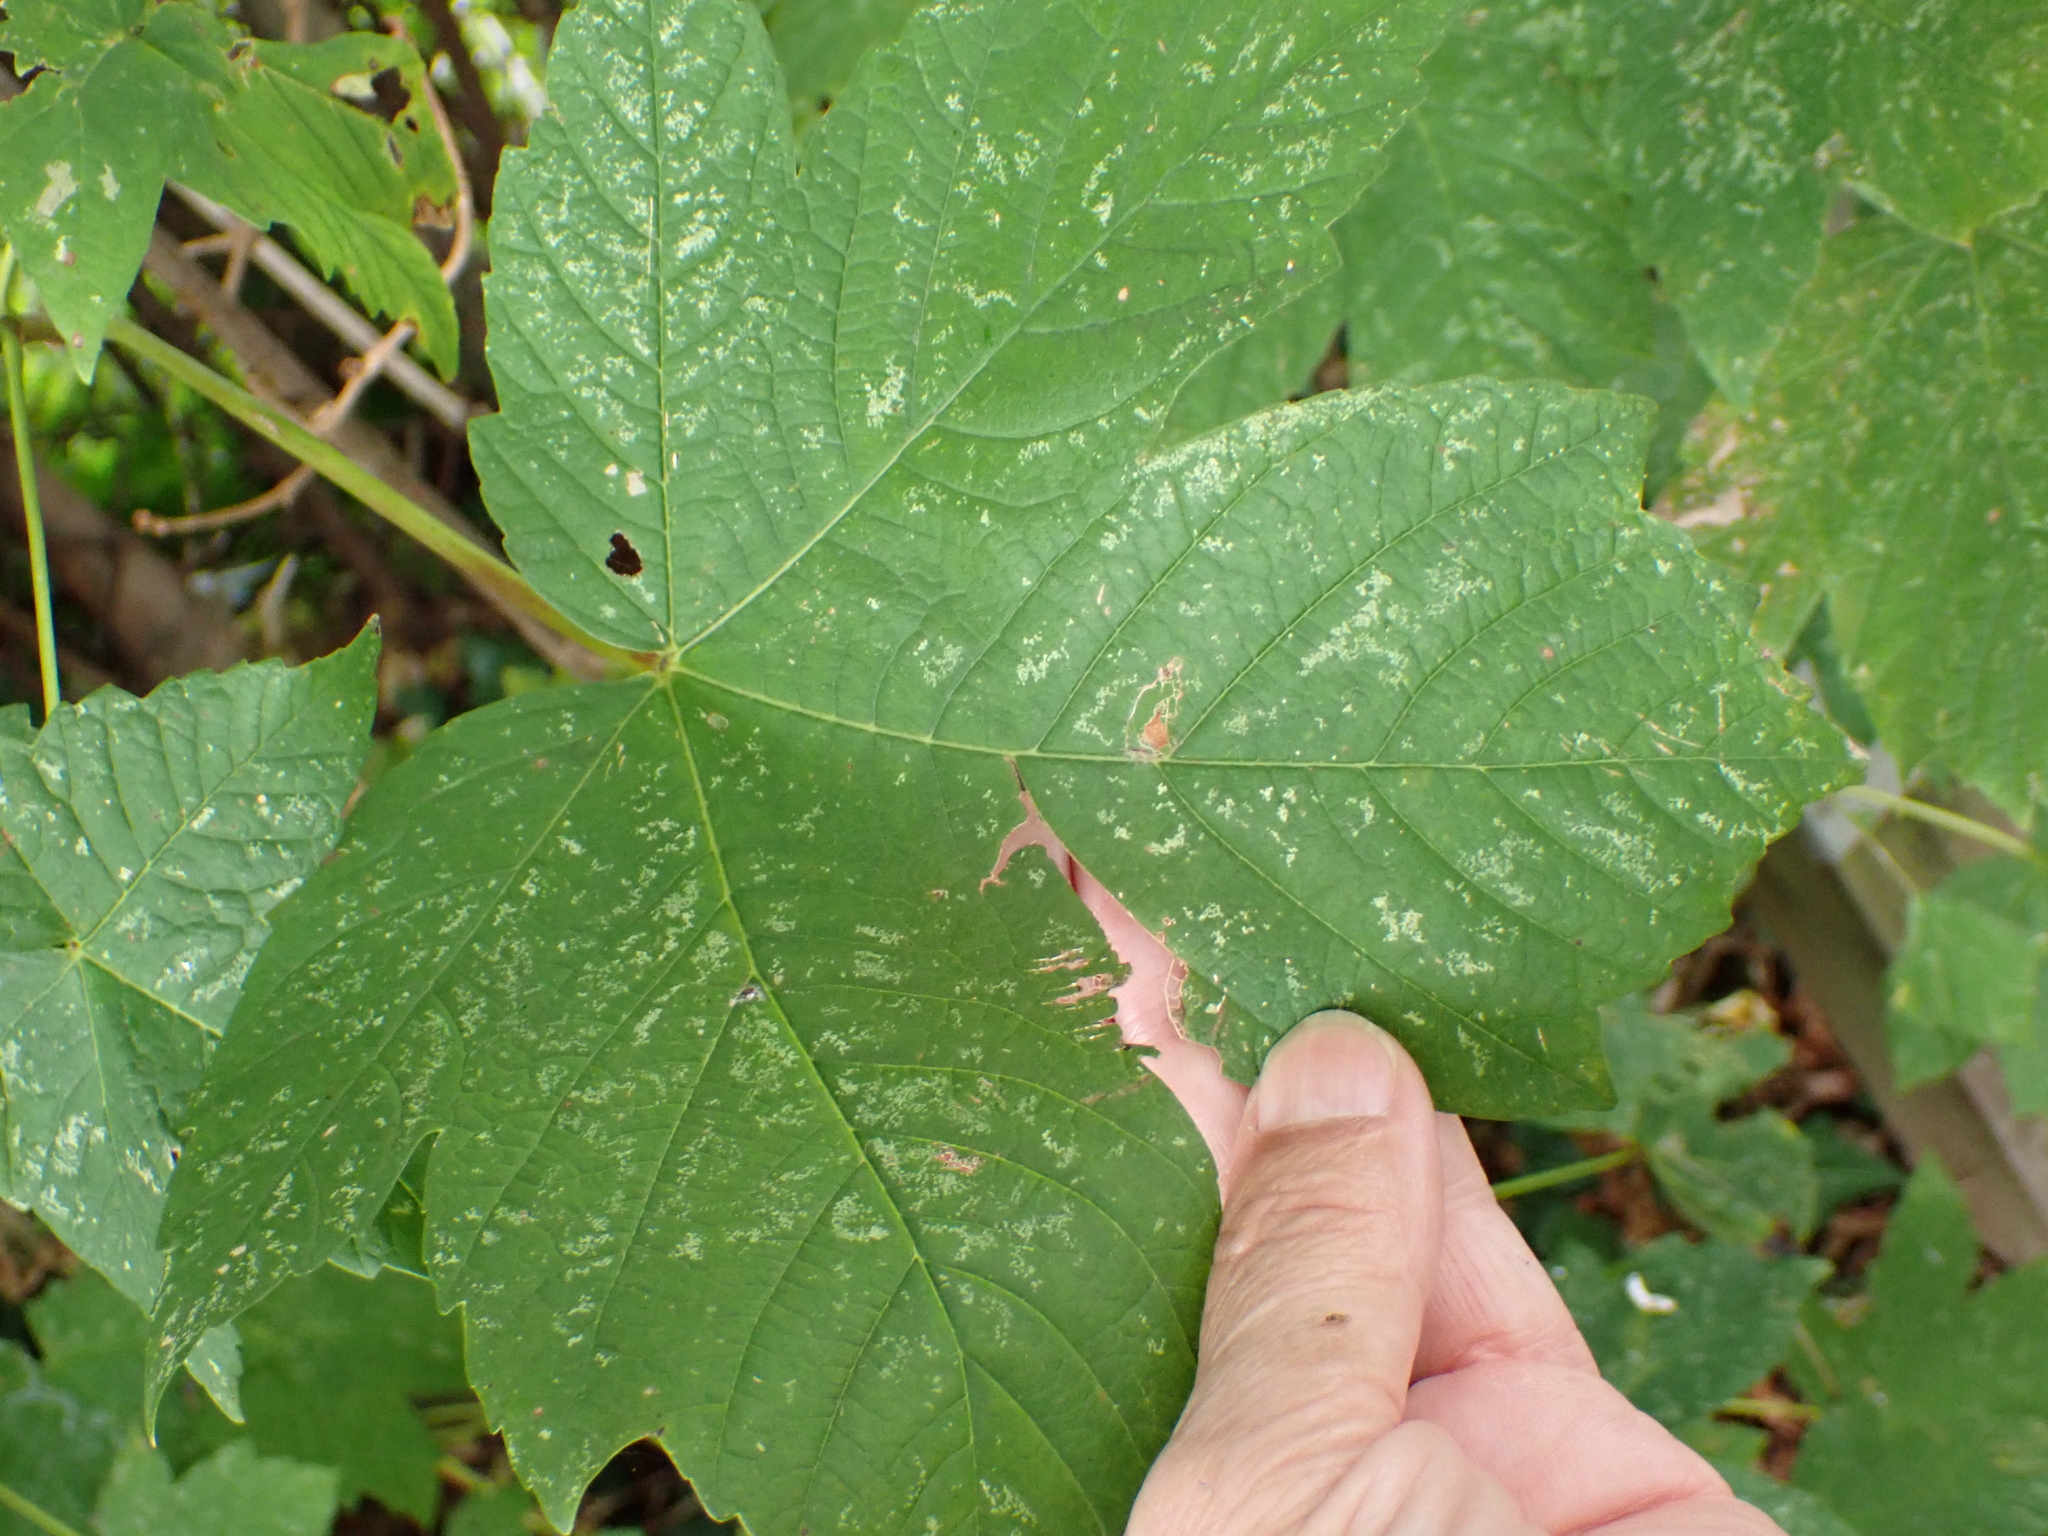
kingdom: Plantae
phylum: Tracheophyta
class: Magnoliopsida
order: Sapindales
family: Sapindaceae
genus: Acer
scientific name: Acer pseudoplatanus
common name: Sycamore
